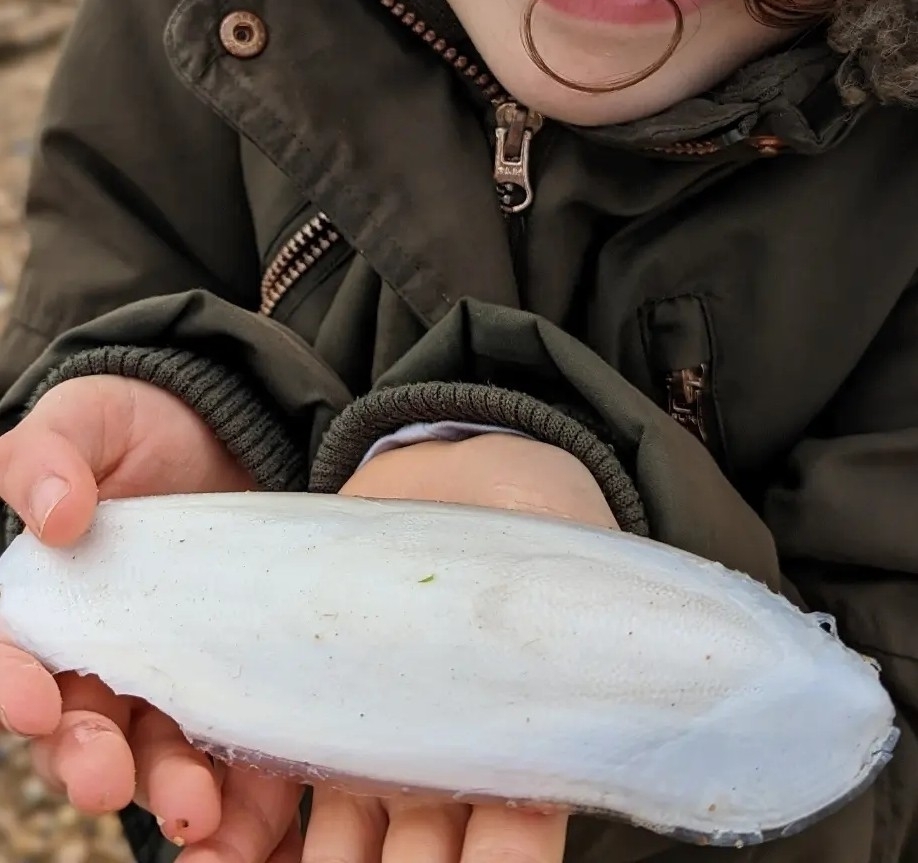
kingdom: Animalia
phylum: Mollusca
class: Cephalopoda
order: Sepiida
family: Sepiidae
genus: Sepia
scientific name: Sepia officinalis
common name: Common cuttlefish
